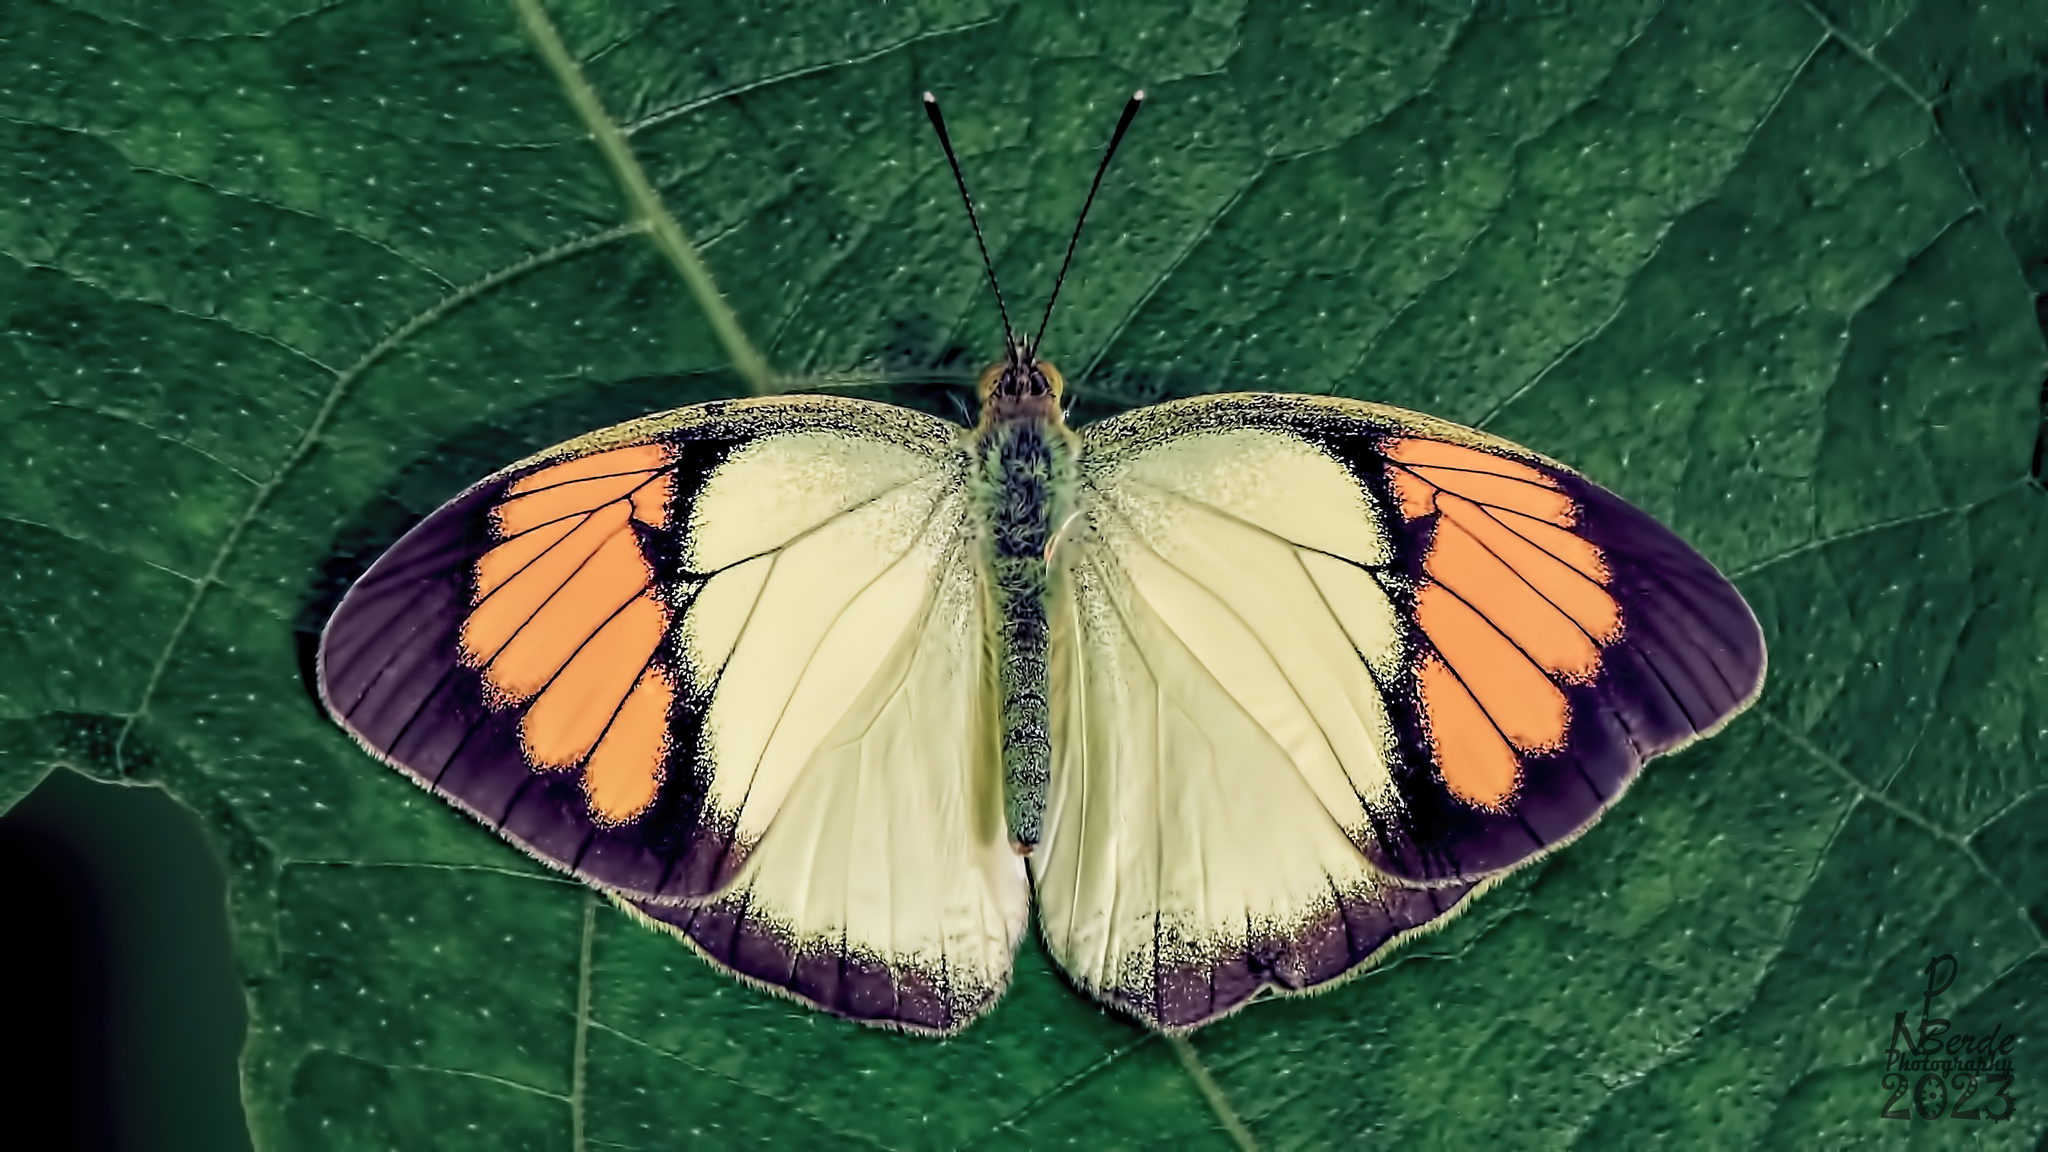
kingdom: Animalia
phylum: Arthropoda
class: Insecta
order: Lepidoptera
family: Pieridae
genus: Ixias
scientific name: Ixias pyrene
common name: Yellow orange tip
